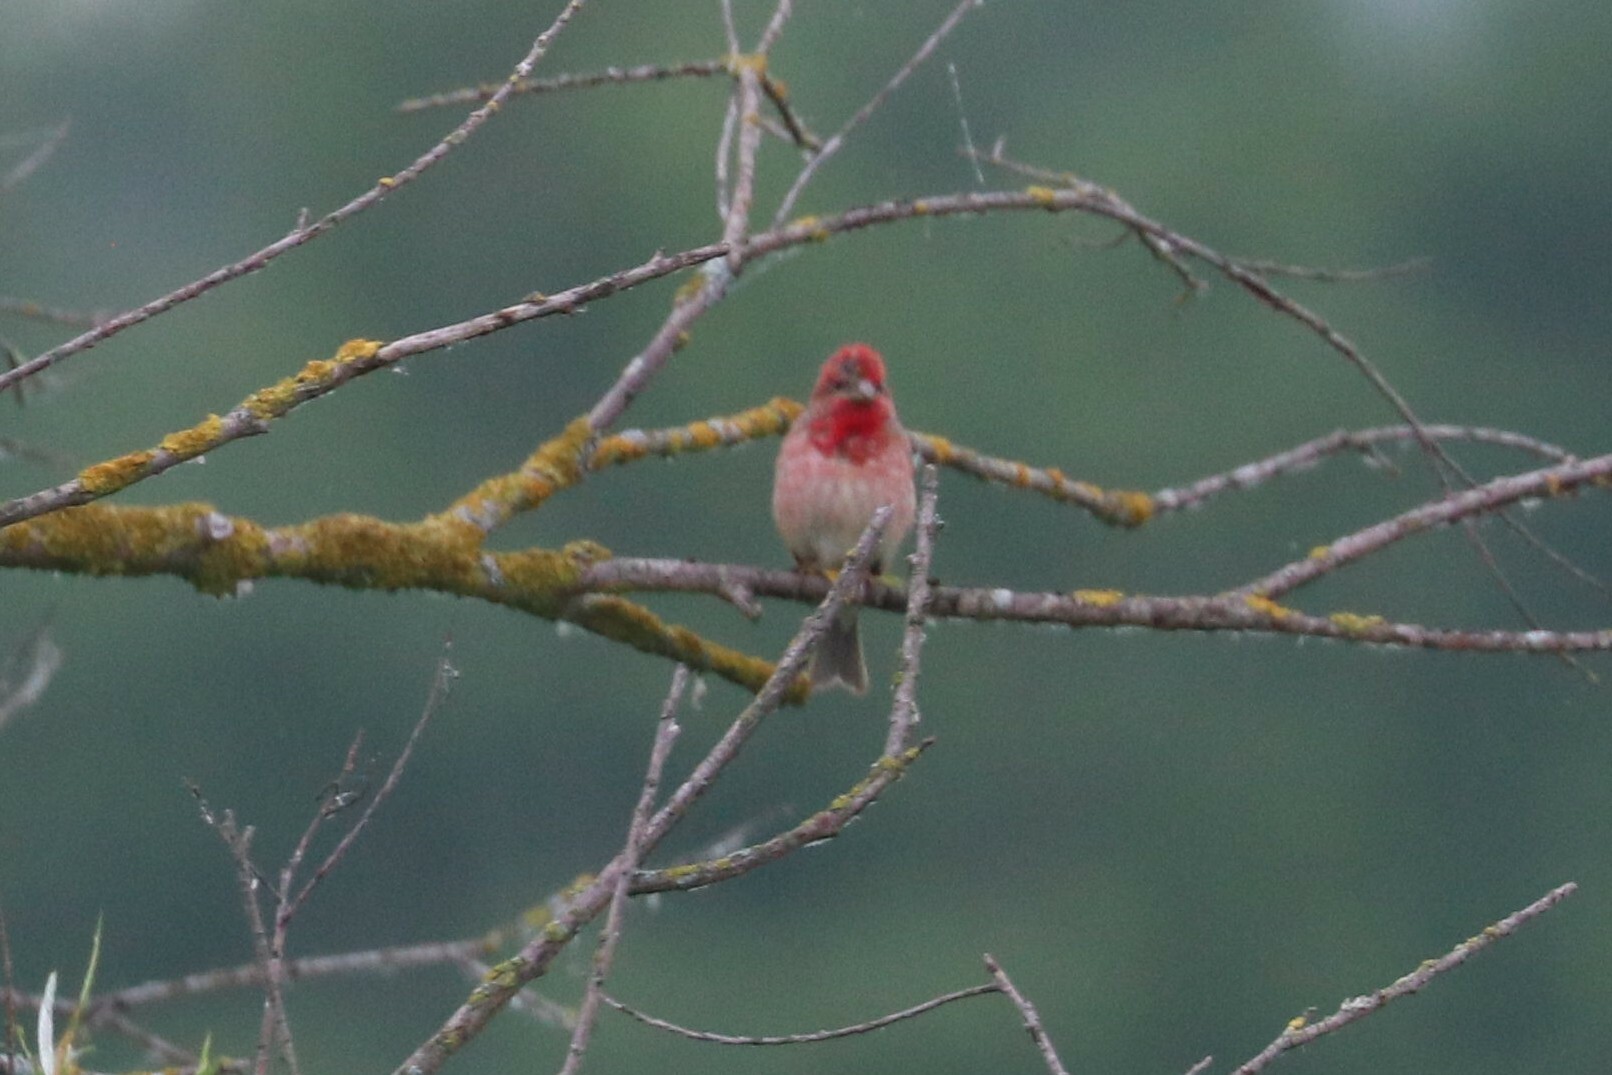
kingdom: Animalia
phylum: Chordata
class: Aves
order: Passeriformes
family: Fringillidae
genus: Carpodacus
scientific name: Carpodacus erythrinus
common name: Common rosefinch
